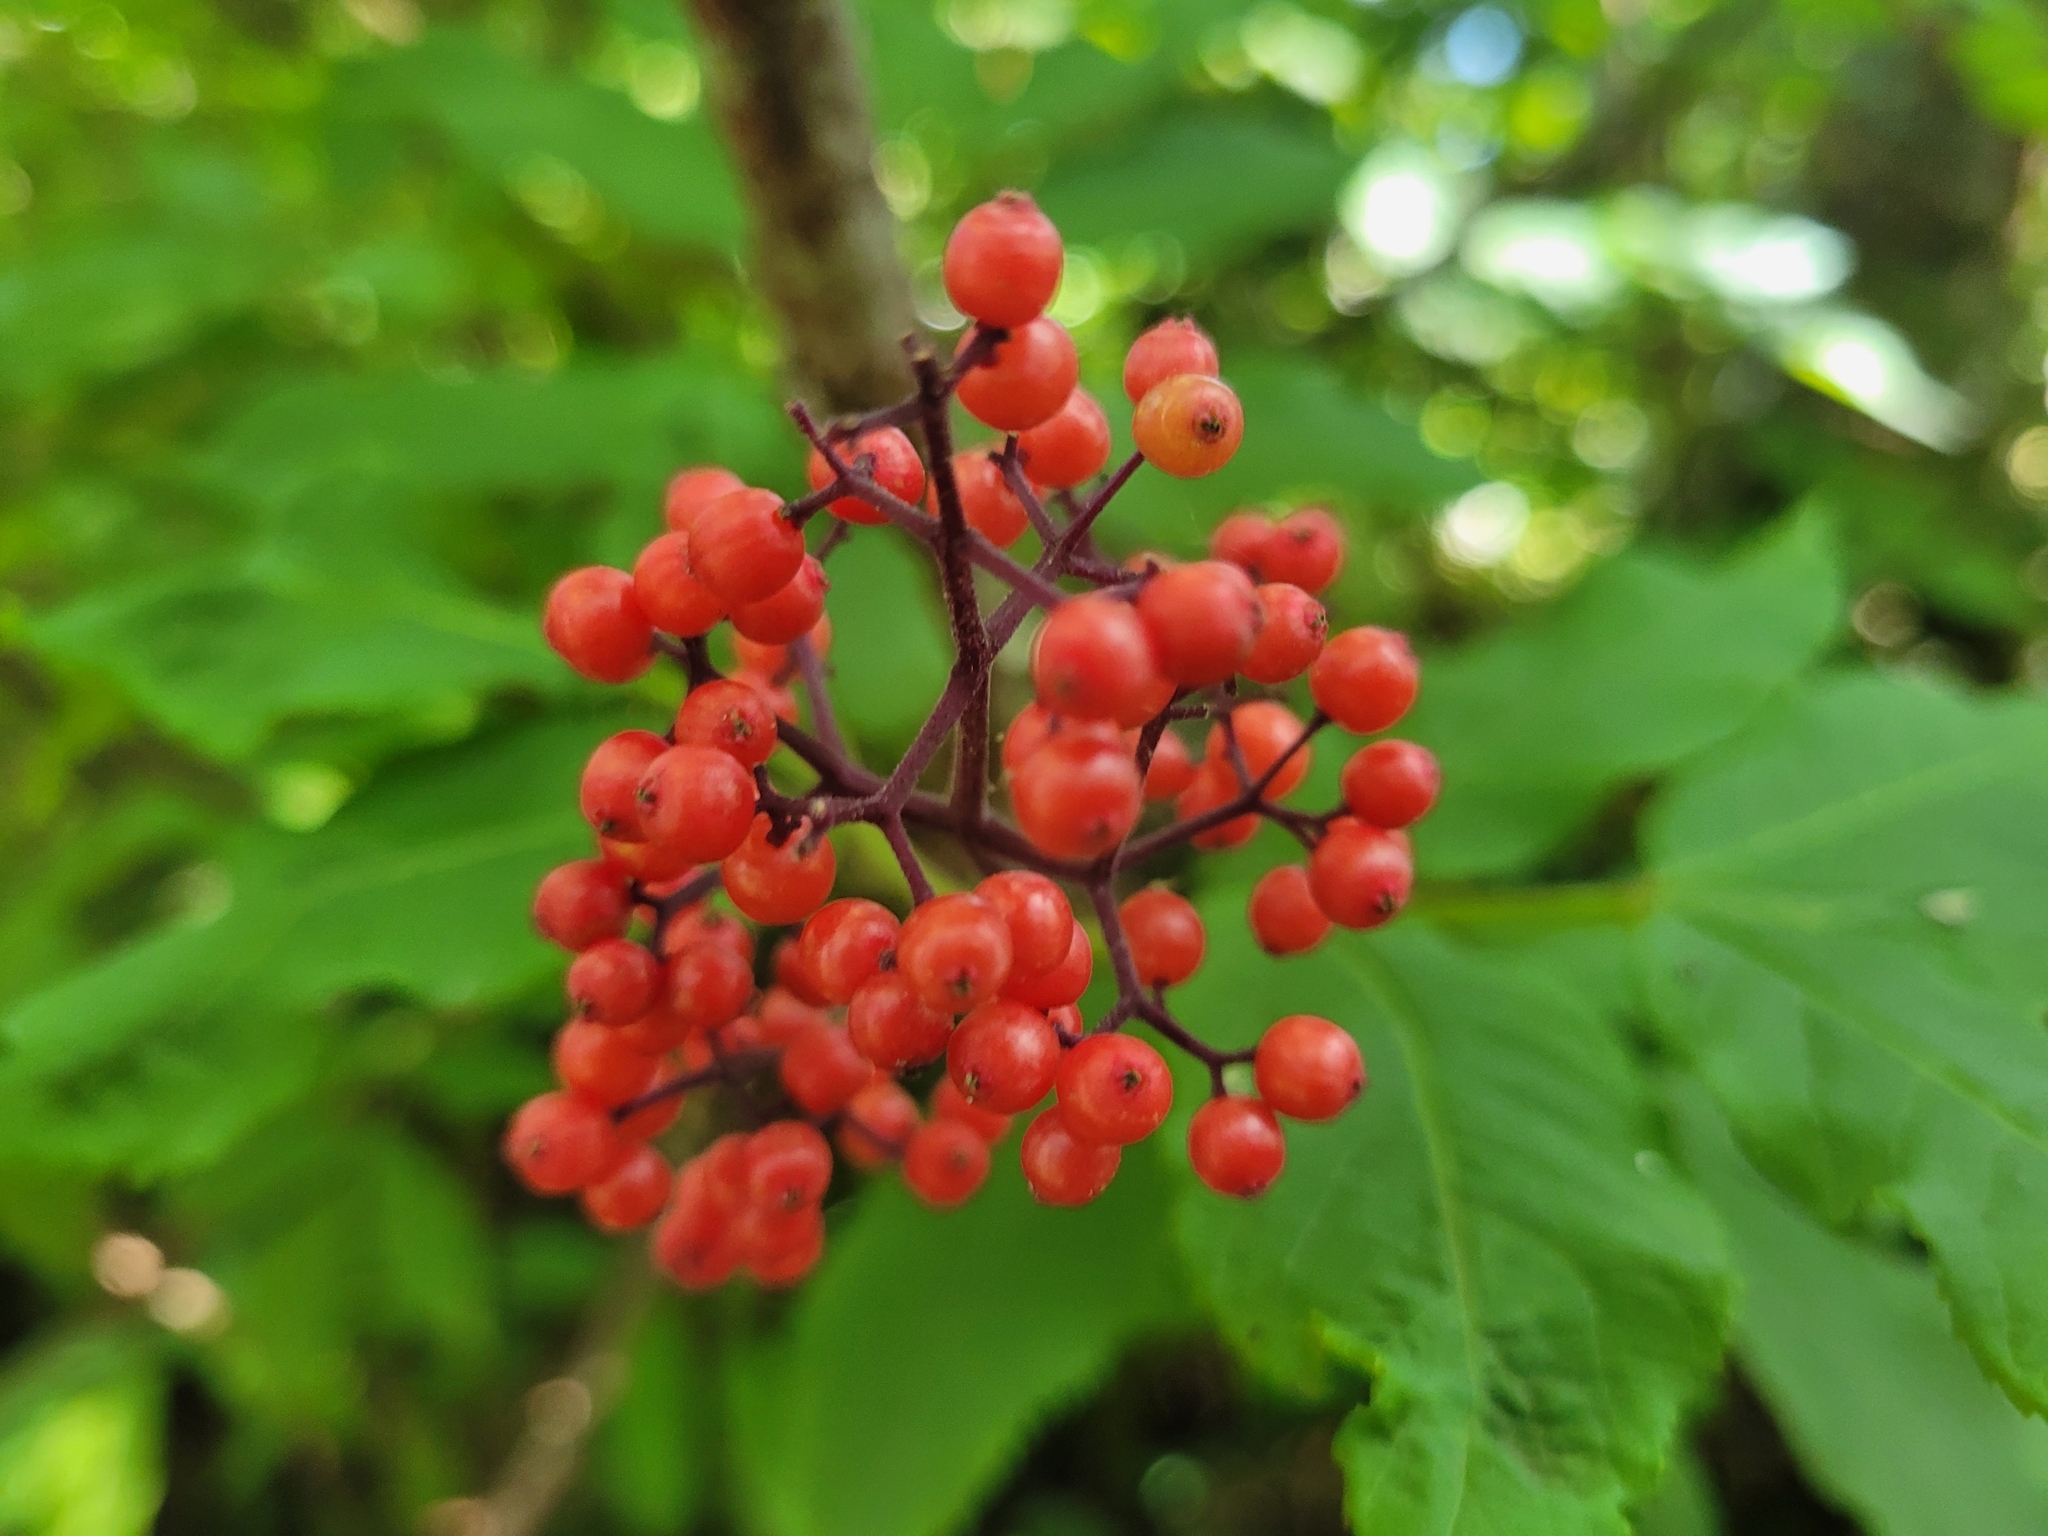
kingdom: Plantae
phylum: Tracheophyta
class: Magnoliopsida
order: Dipsacales
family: Viburnaceae
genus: Sambucus
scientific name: Sambucus racemosa
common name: Red-berried elder
